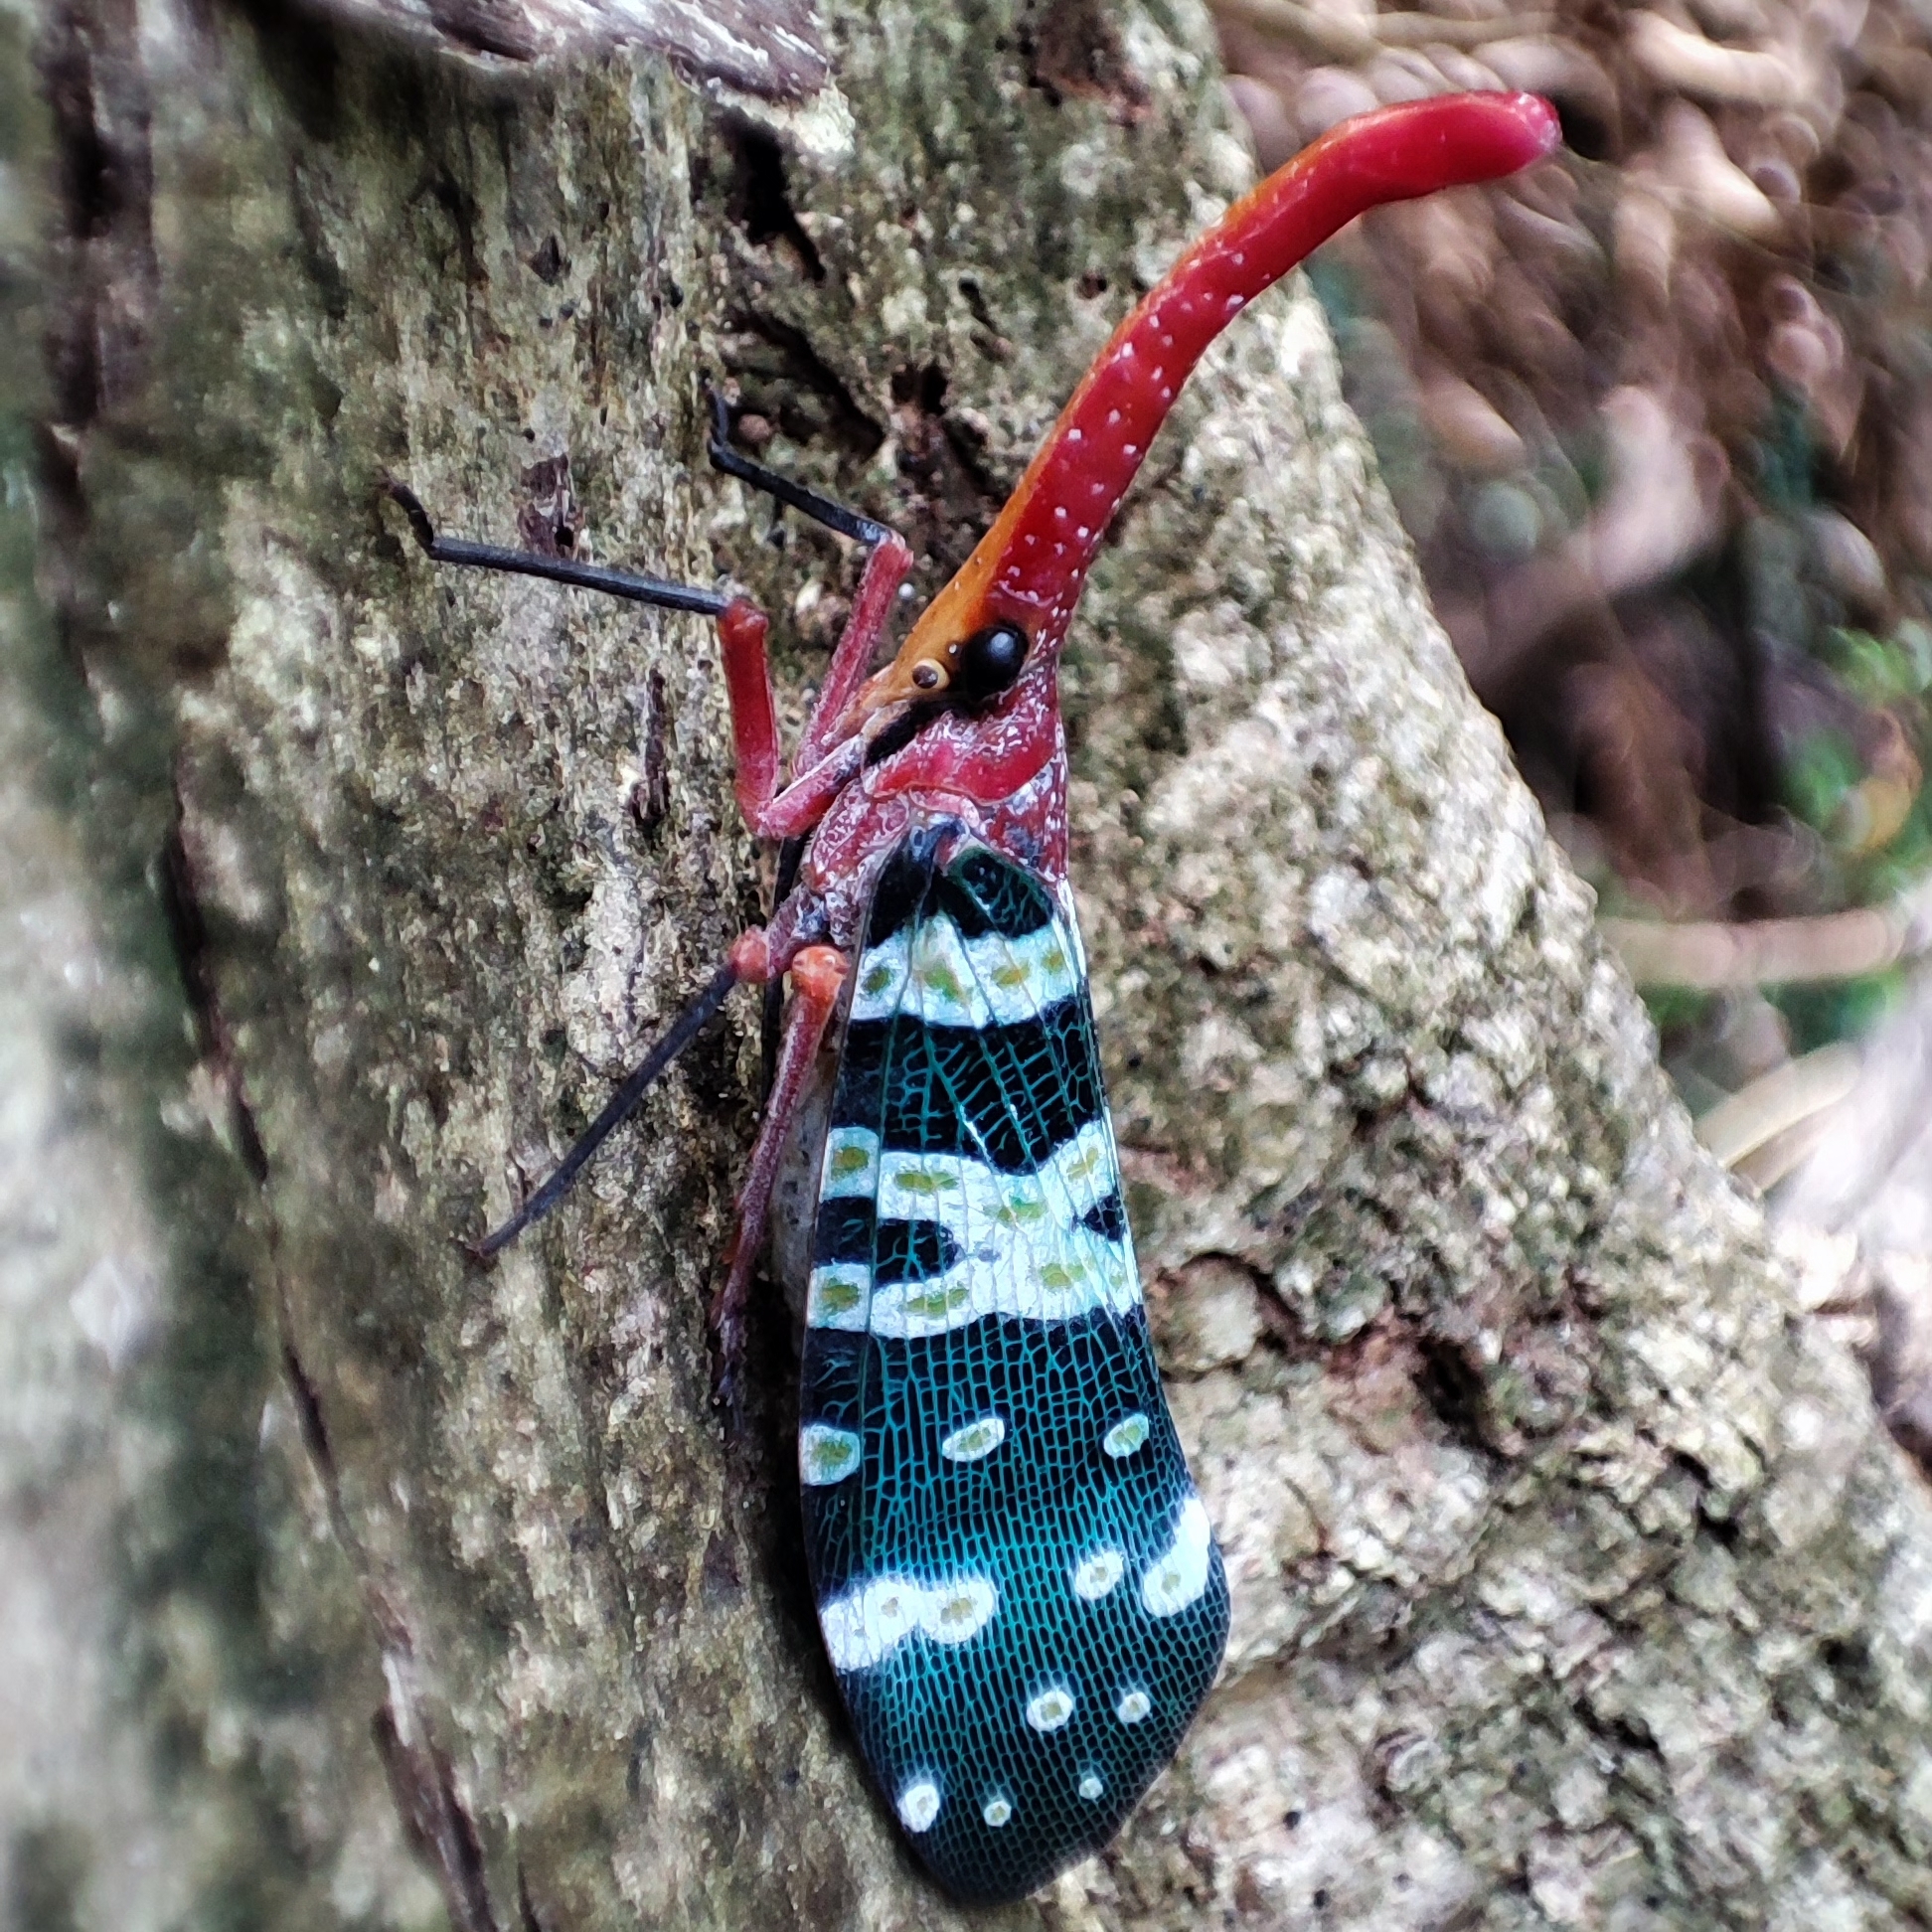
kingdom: Animalia
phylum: Arthropoda
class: Insecta
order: Hemiptera
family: Fulgoridae
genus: Pyrops
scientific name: Pyrops candelaria
